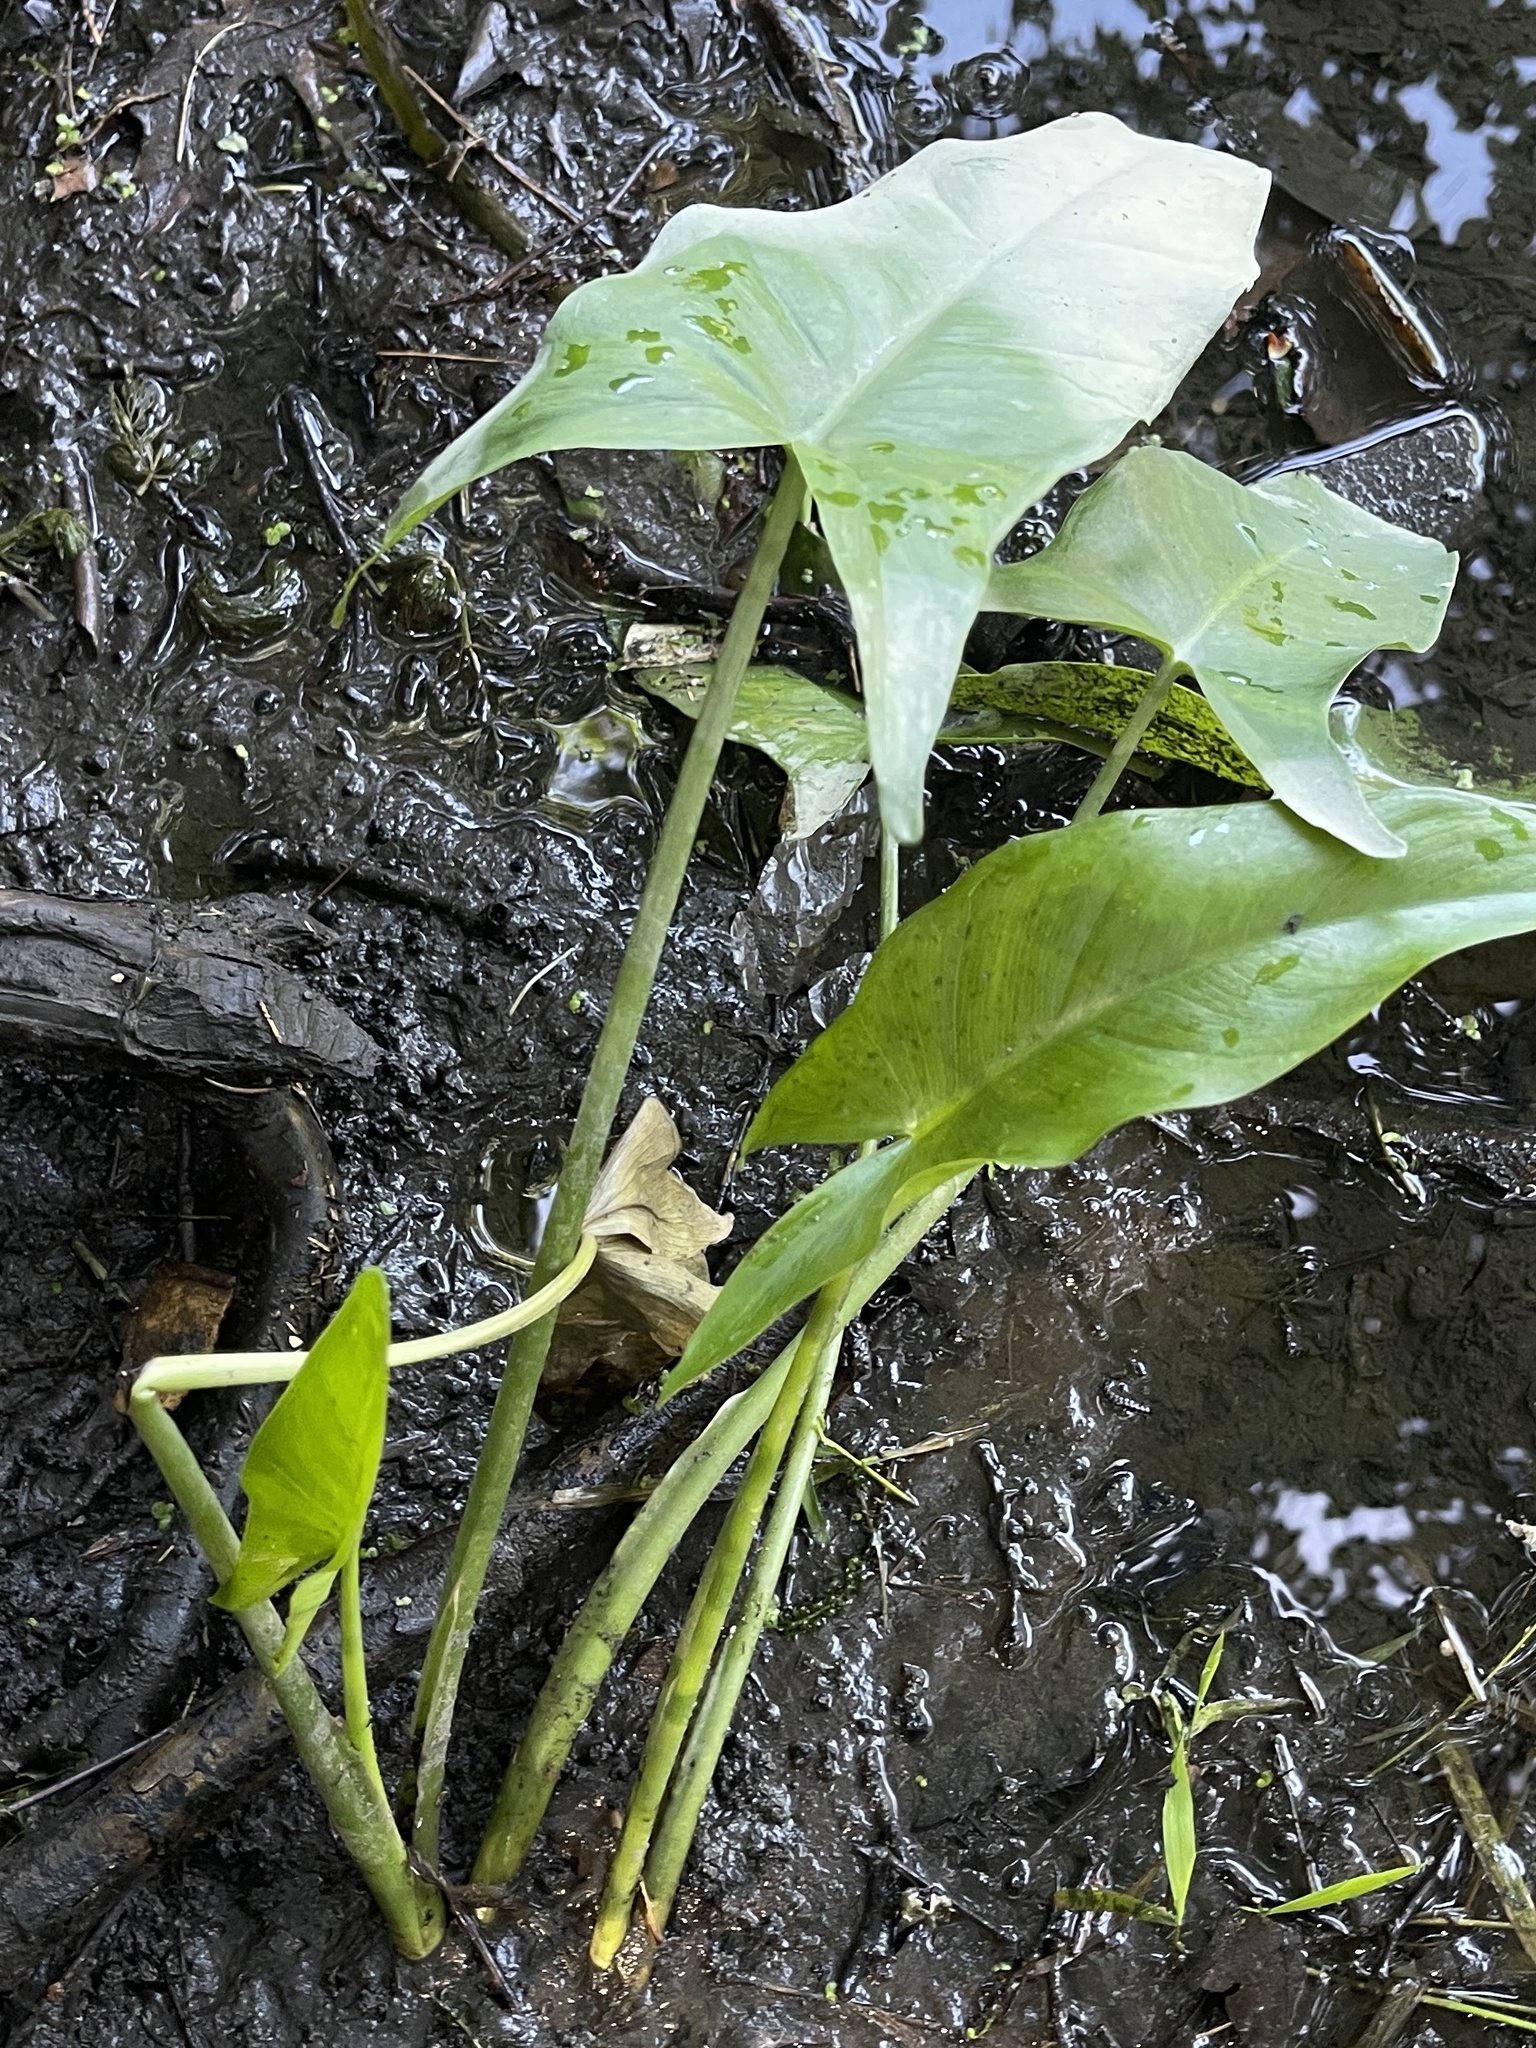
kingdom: Plantae
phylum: Tracheophyta
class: Liliopsida
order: Alismatales
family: Araceae
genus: Peltandra
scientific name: Peltandra virginica
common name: Arrow arum
